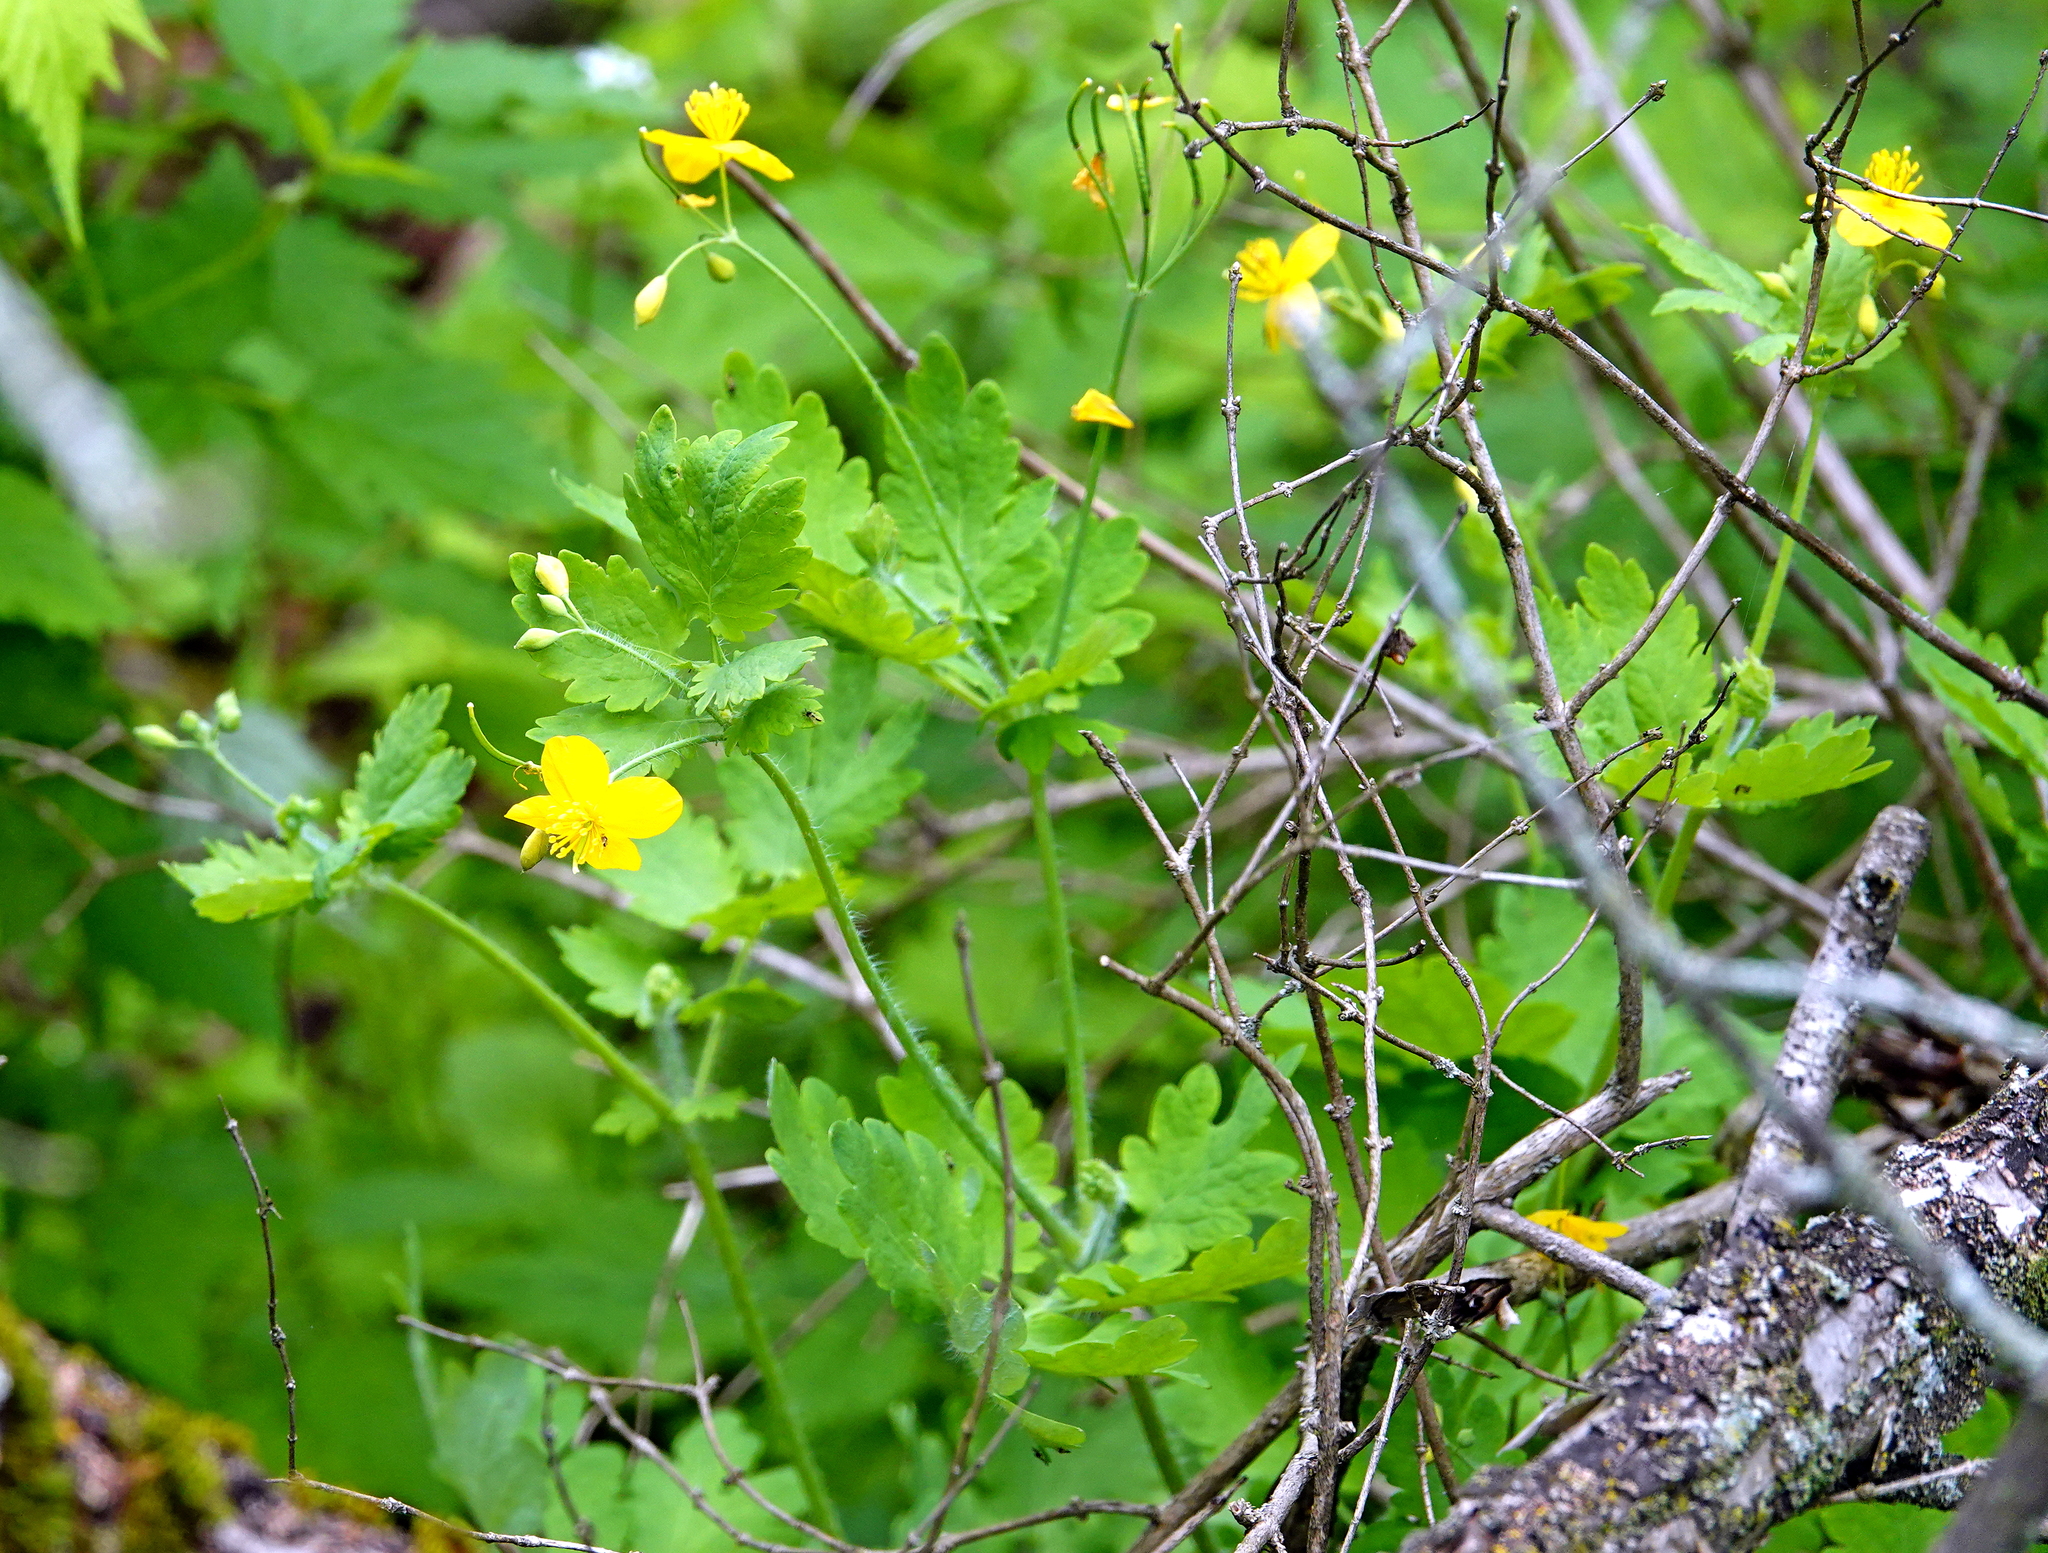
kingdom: Plantae
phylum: Tracheophyta
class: Magnoliopsida
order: Ranunculales
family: Papaveraceae
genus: Chelidonium
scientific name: Chelidonium majus
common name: Greater celandine
